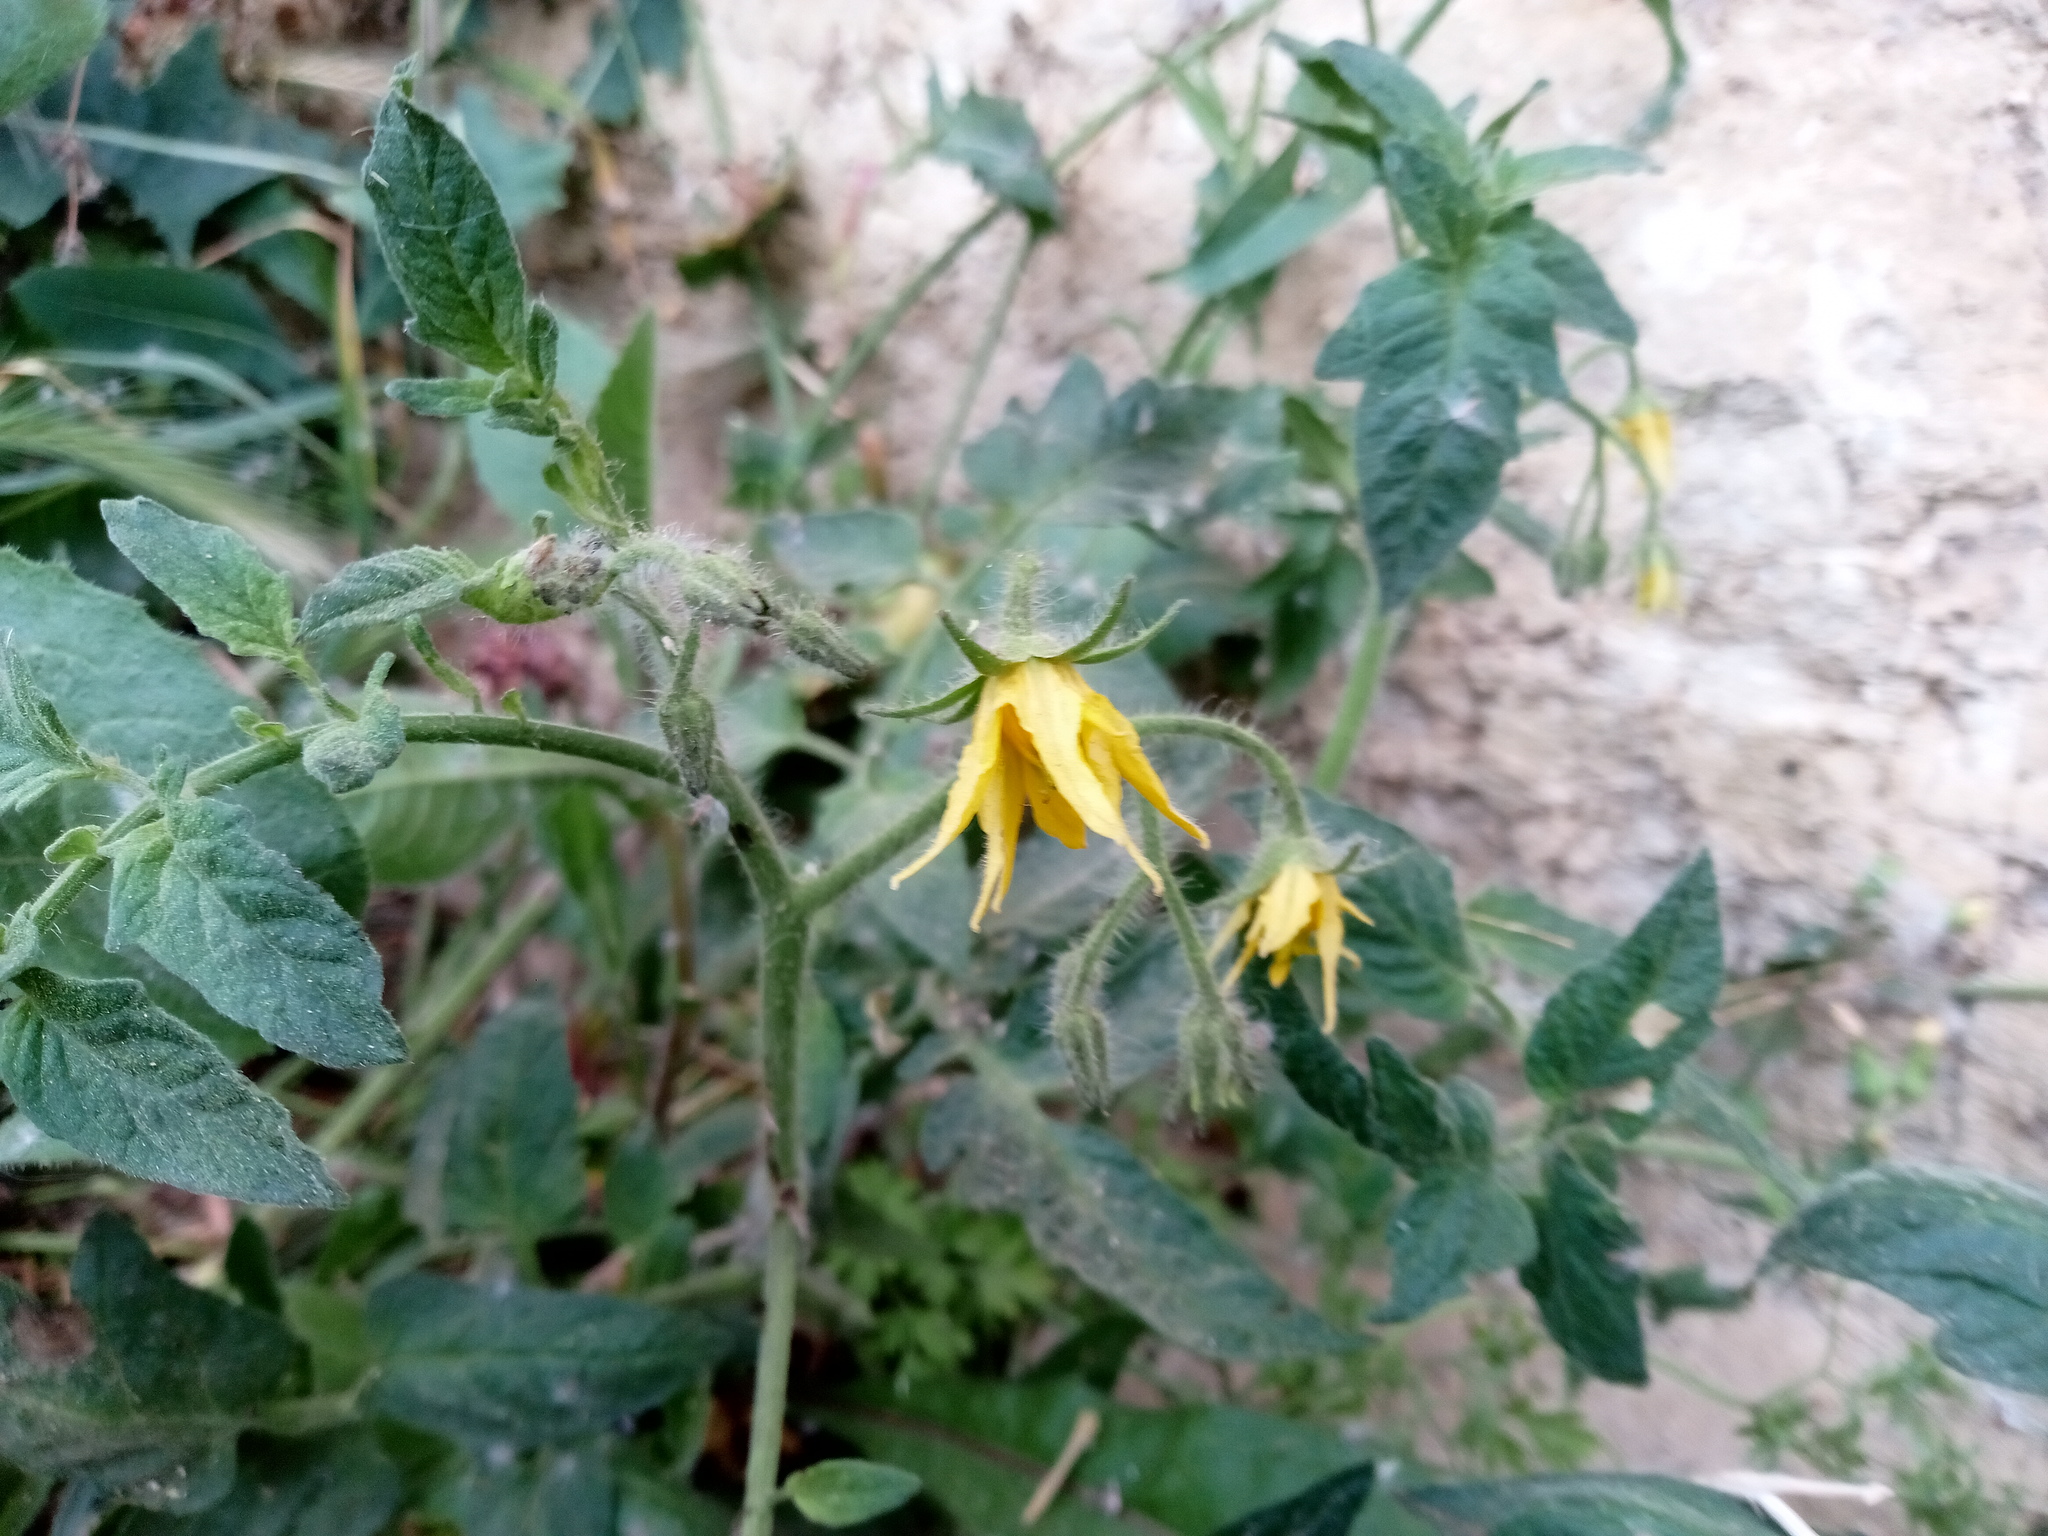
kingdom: Plantae
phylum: Tracheophyta
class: Magnoliopsida
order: Solanales
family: Solanaceae
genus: Solanum
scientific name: Solanum lycopersicum
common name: Garden tomato
